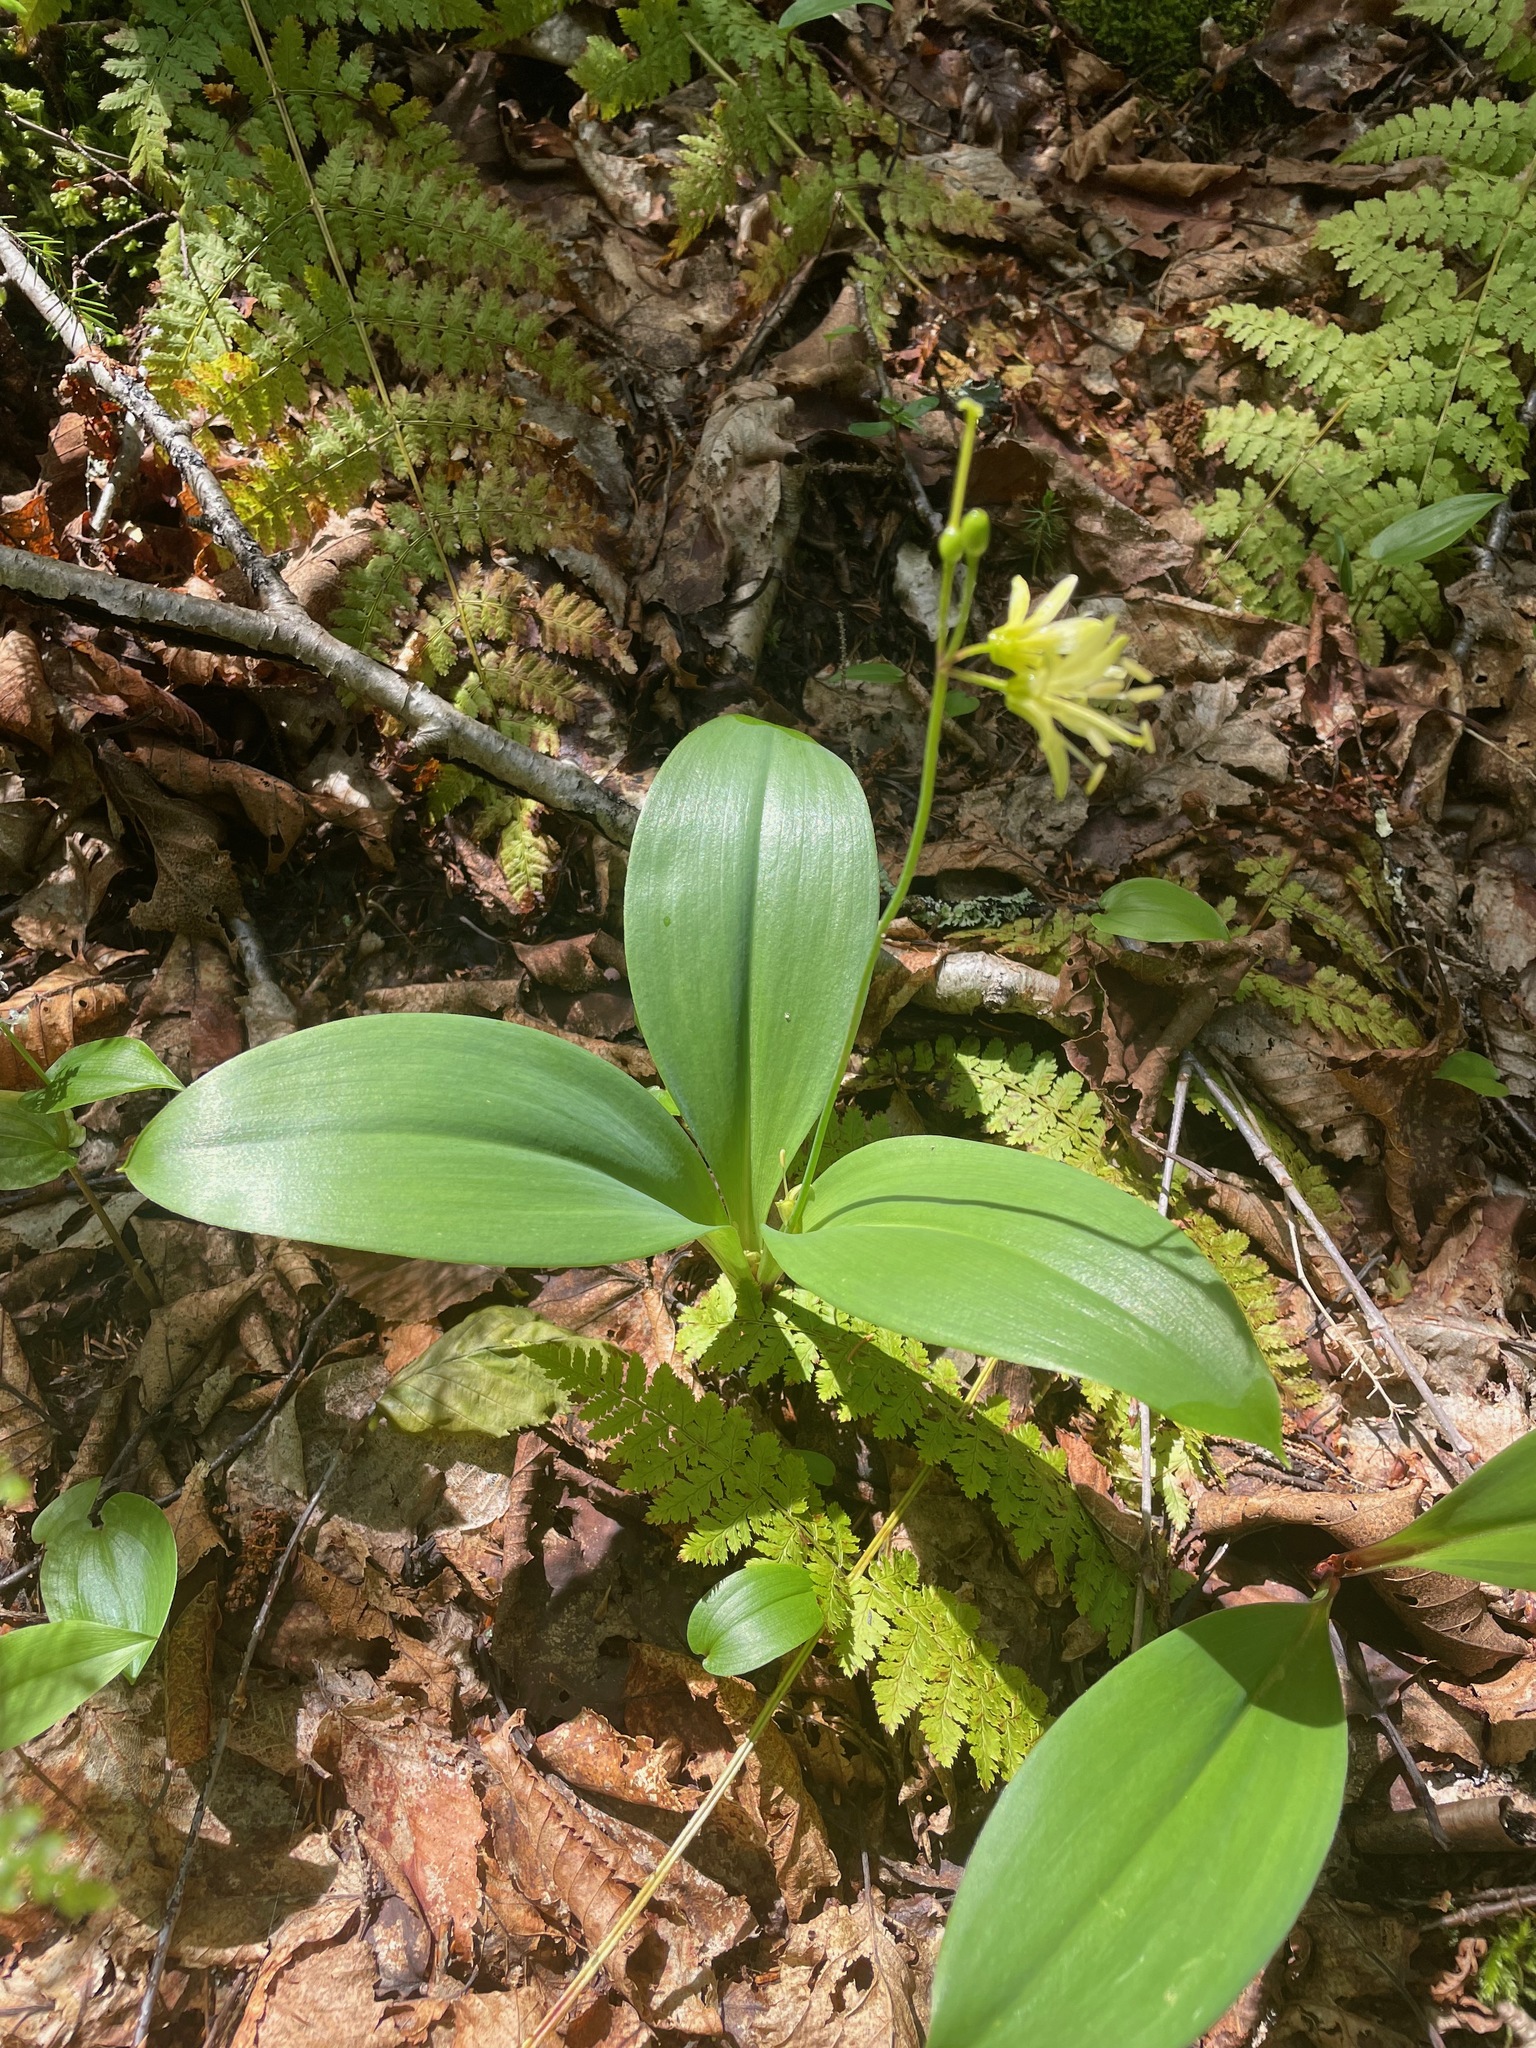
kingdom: Plantae
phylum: Tracheophyta
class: Liliopsida
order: Liliales
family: Liliaceae
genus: Clintonia
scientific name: Clintonia borealis
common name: Yellow clintonia
